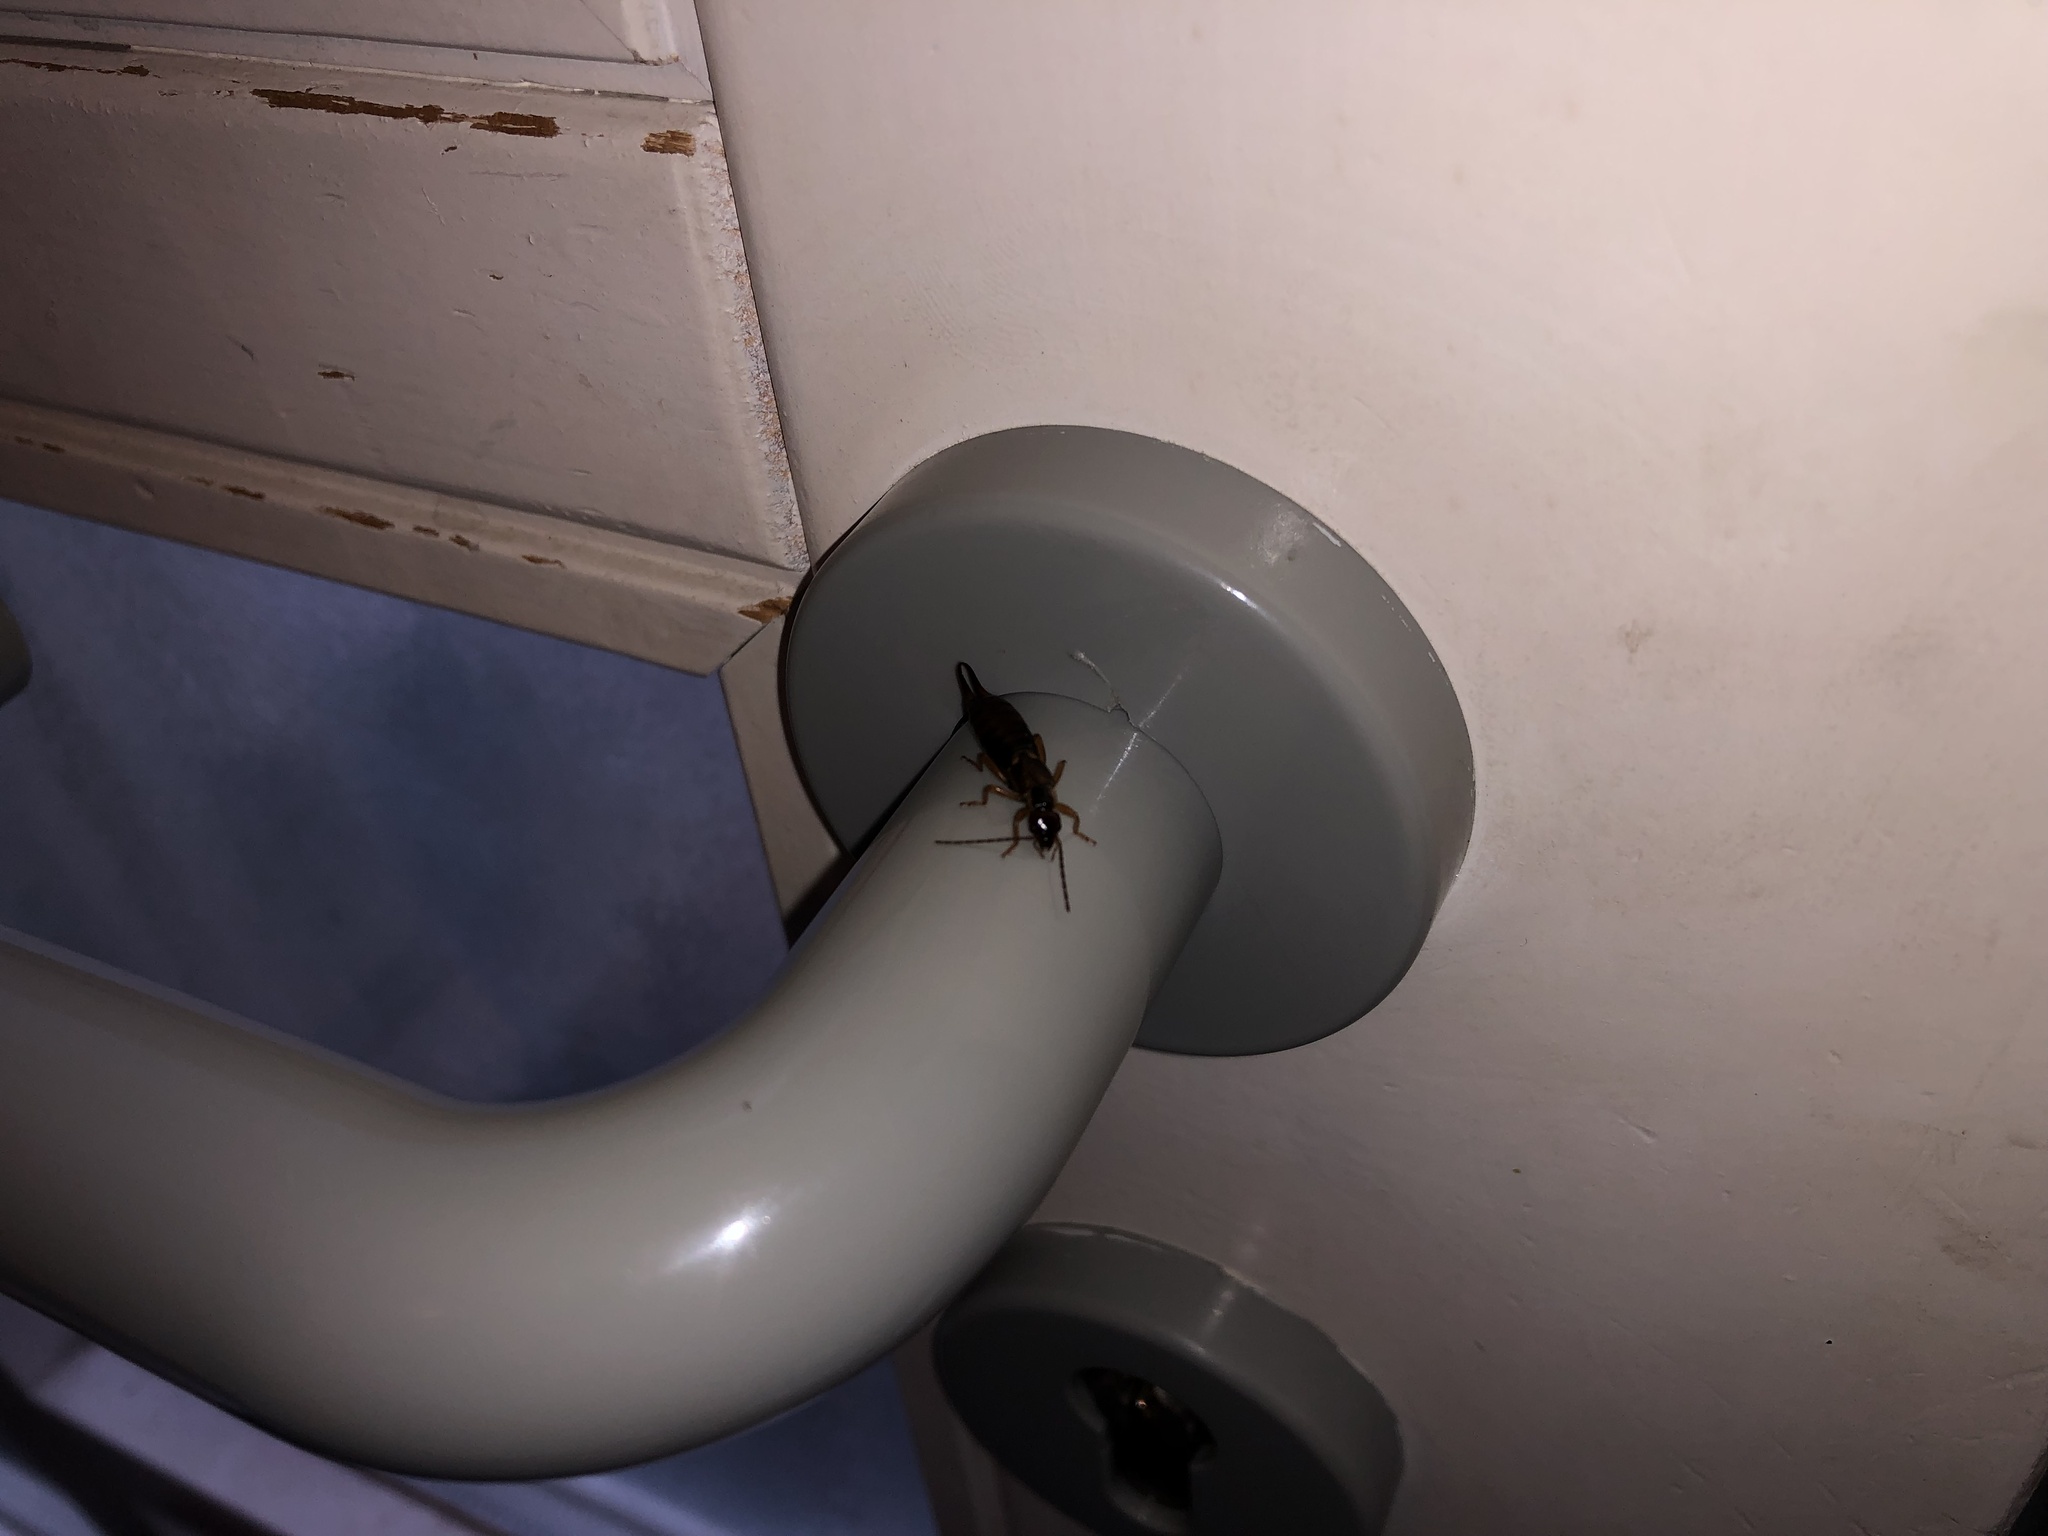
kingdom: Animalia
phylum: Arthropoda
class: Insecta
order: Dermaptera
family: Forficulidae
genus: Forficula
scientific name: Forficula
